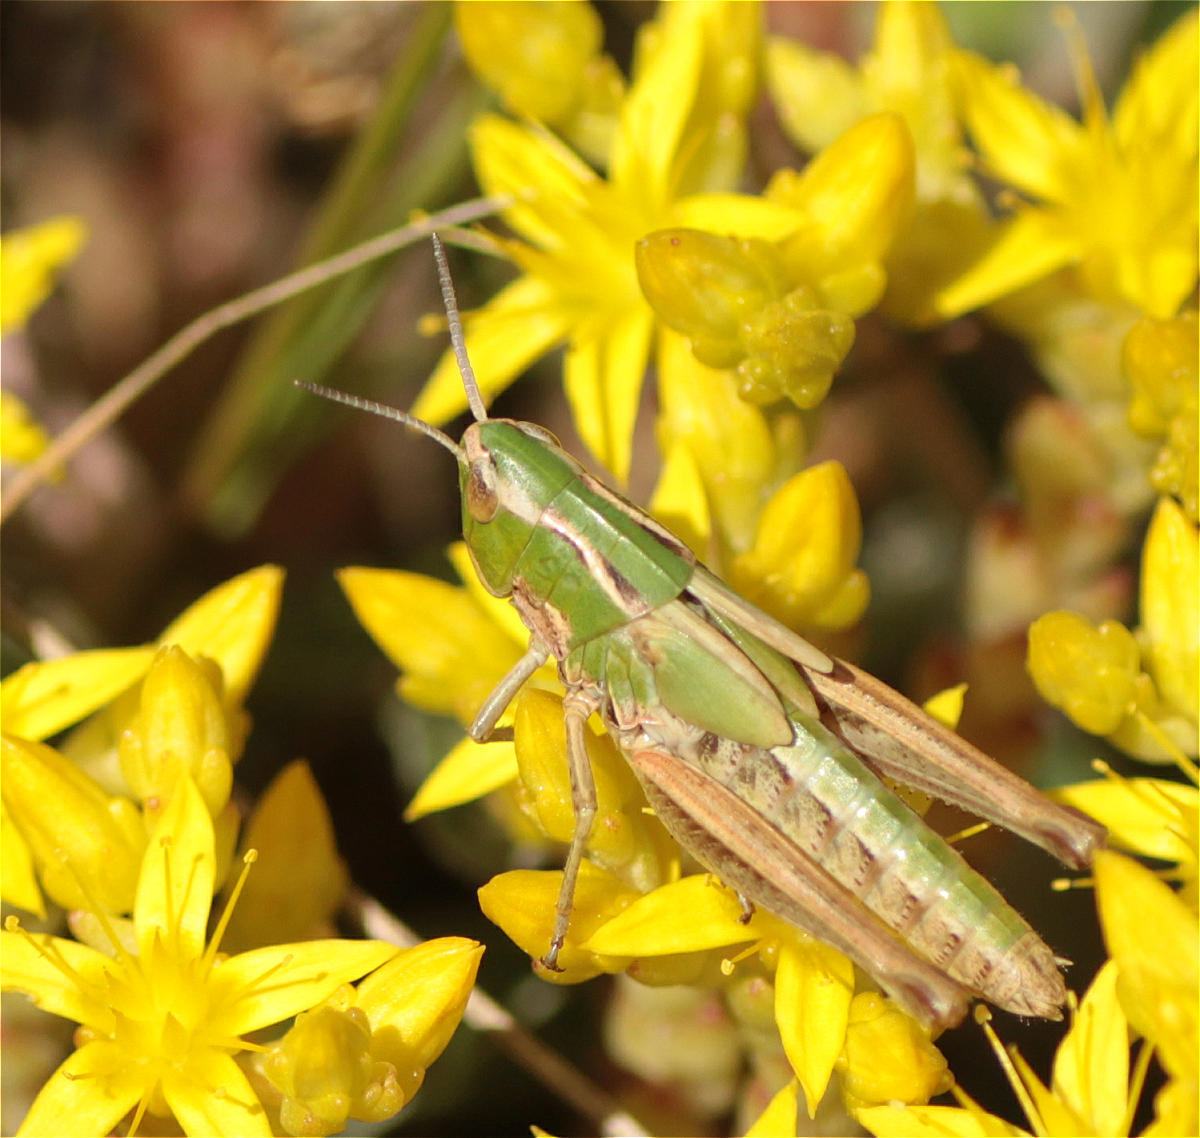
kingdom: Animalia
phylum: Arthropoda
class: Insecta
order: Orthoptera
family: Acrididae
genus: Stenobothrus
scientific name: Stenobothrus lineatus
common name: Stripe-winged grasshopper
